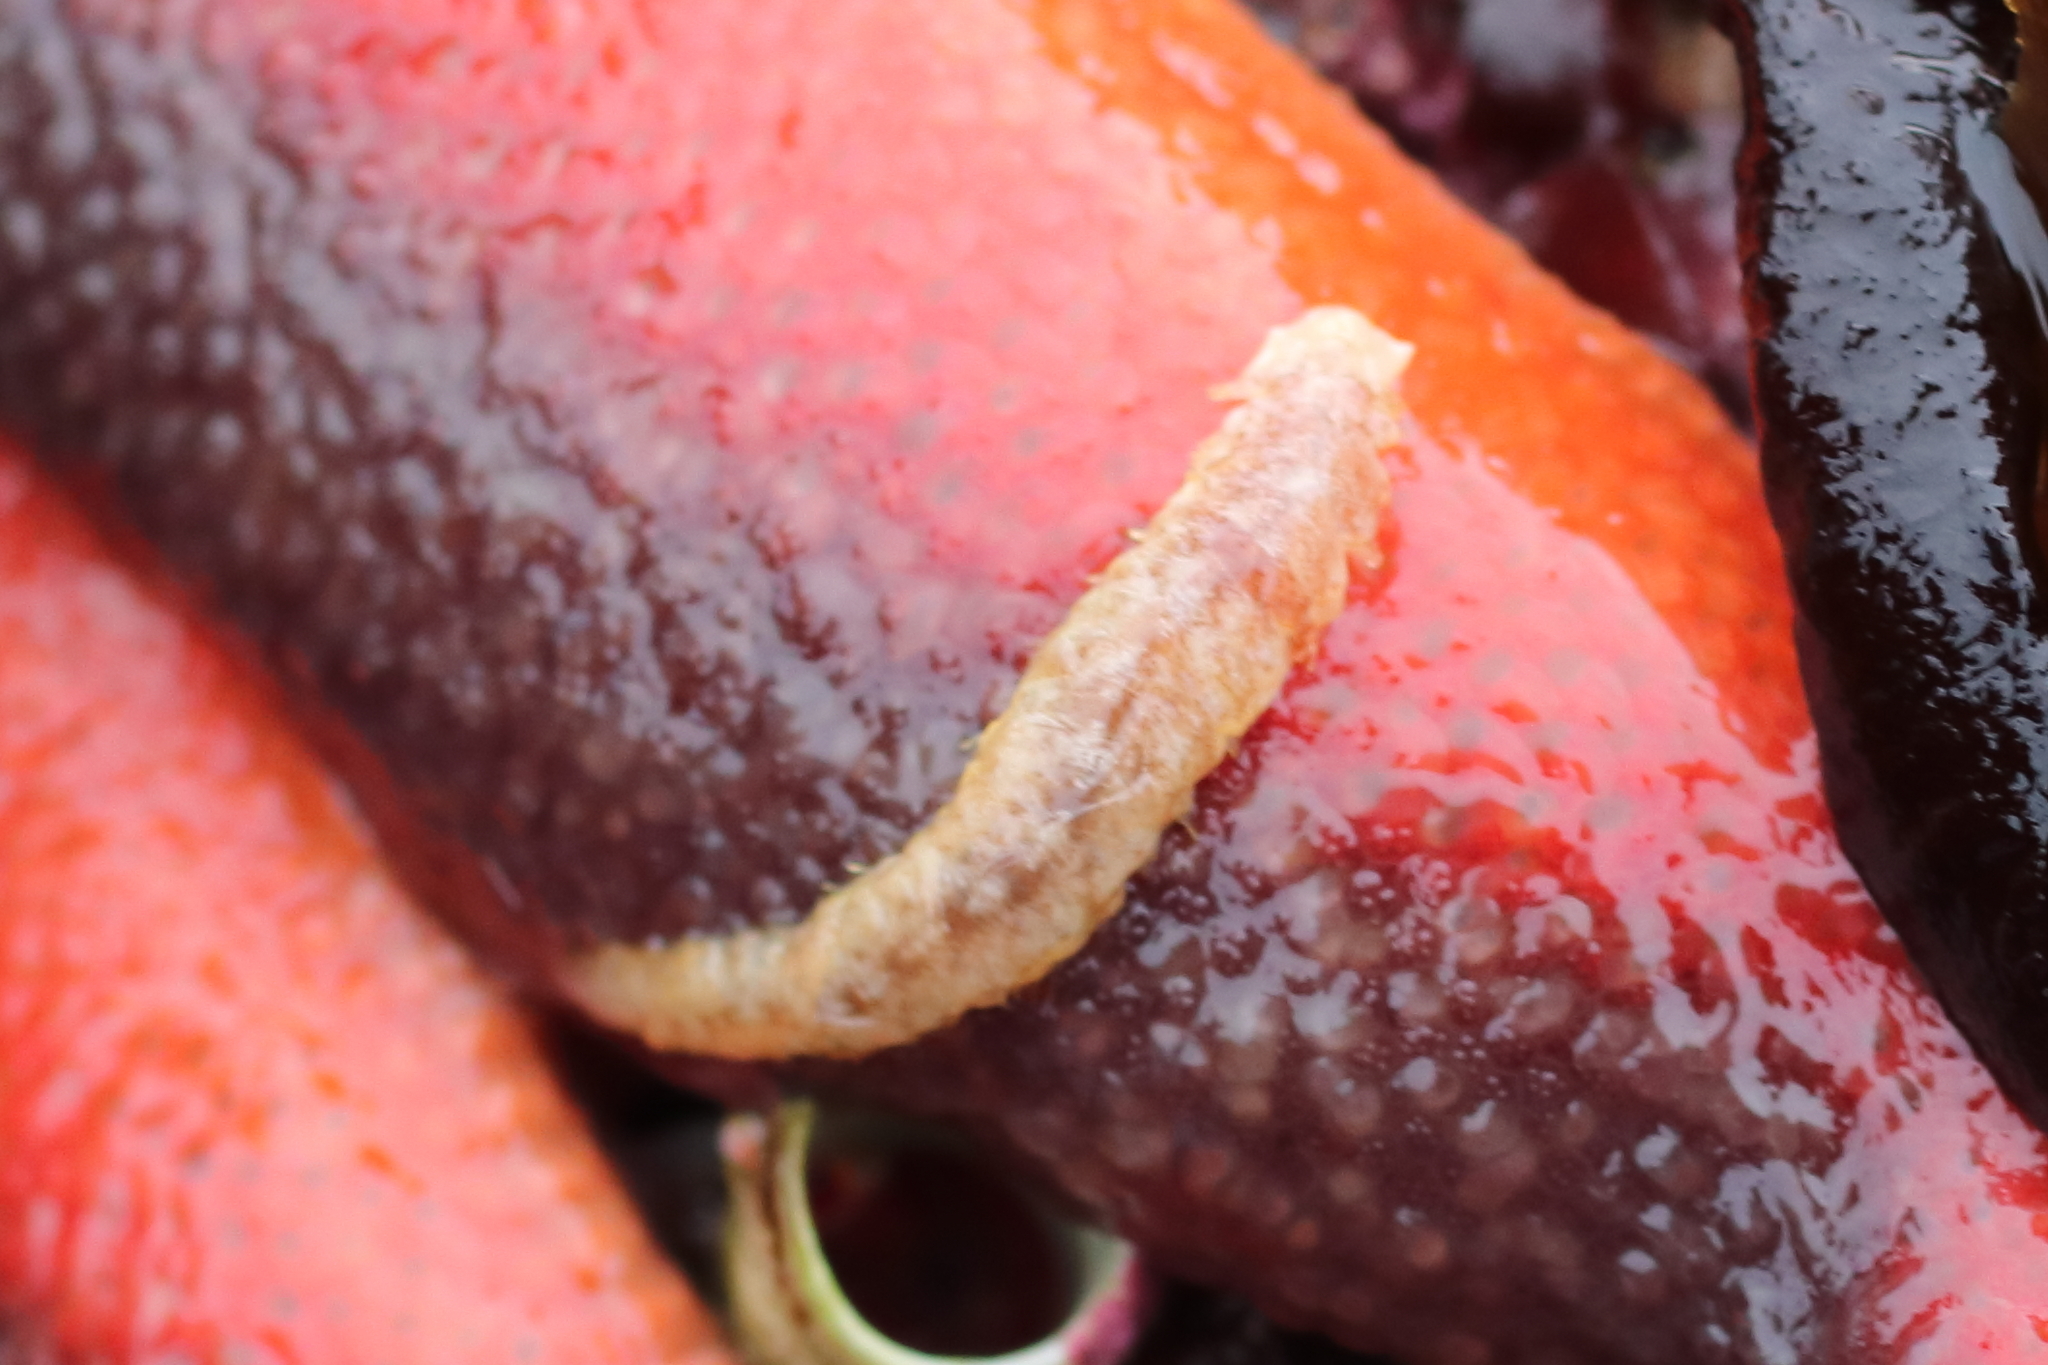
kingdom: Animalia
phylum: Annelida
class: Polychaeta
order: Phyllodocida
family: Polynoidae
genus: Arctonoe
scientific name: Arctonoe vittata
